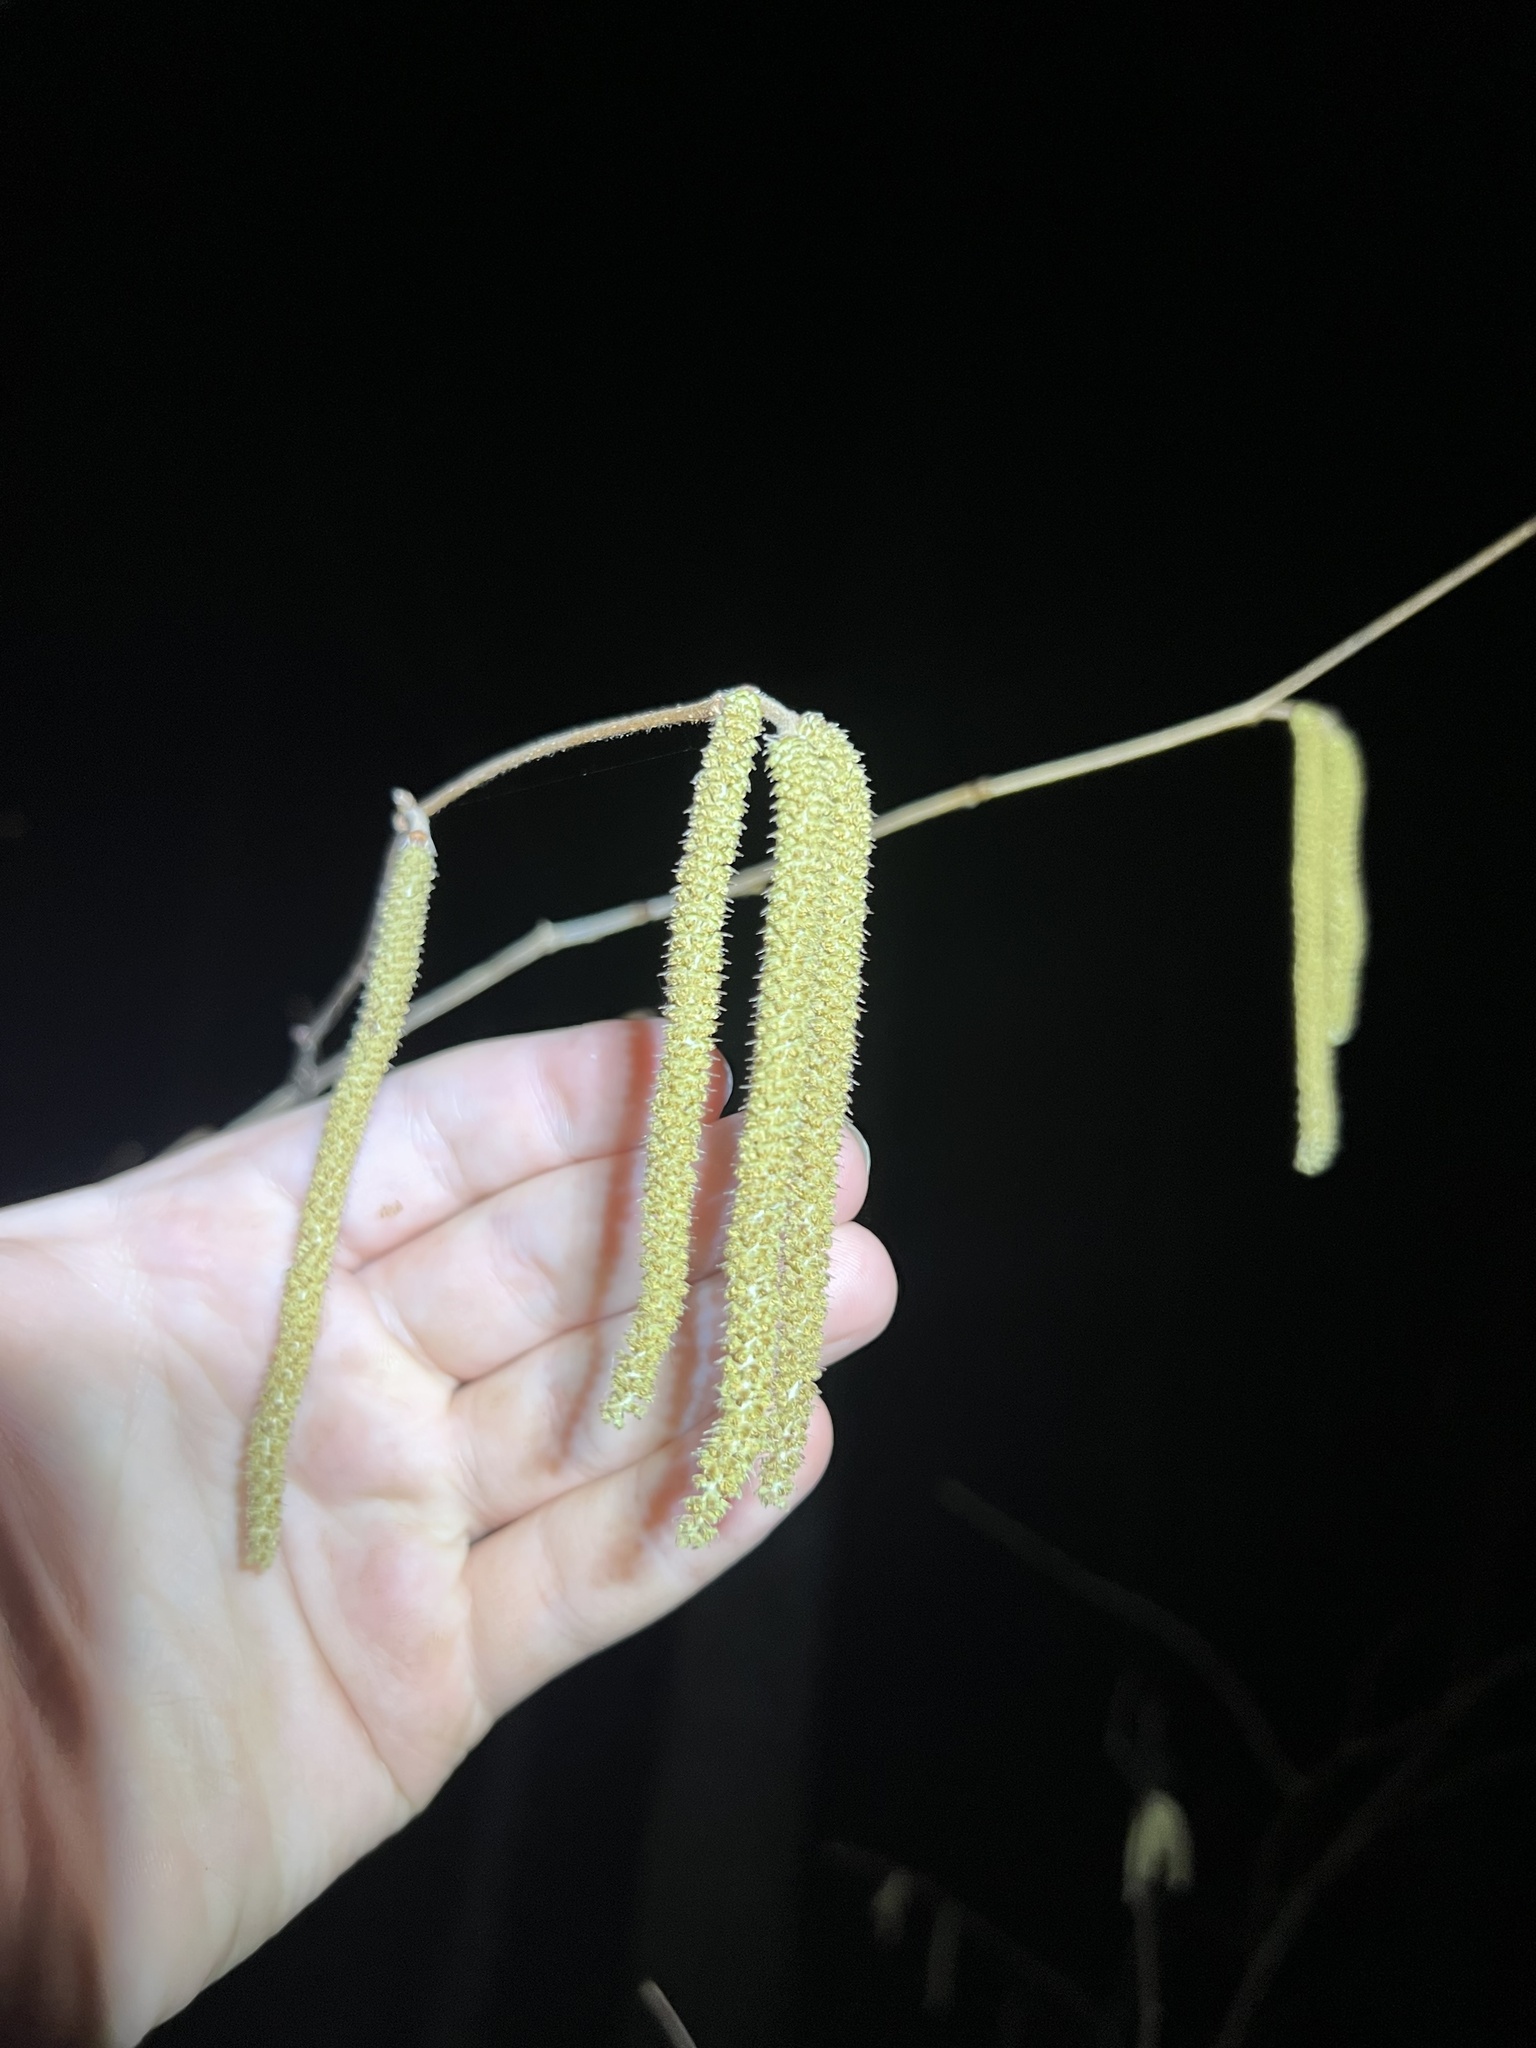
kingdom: Plantae
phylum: Tracheophyta
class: Magnoliopsida
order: Fagales
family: Betulaceae
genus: Corylus
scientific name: Corylus americana
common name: American hazel
